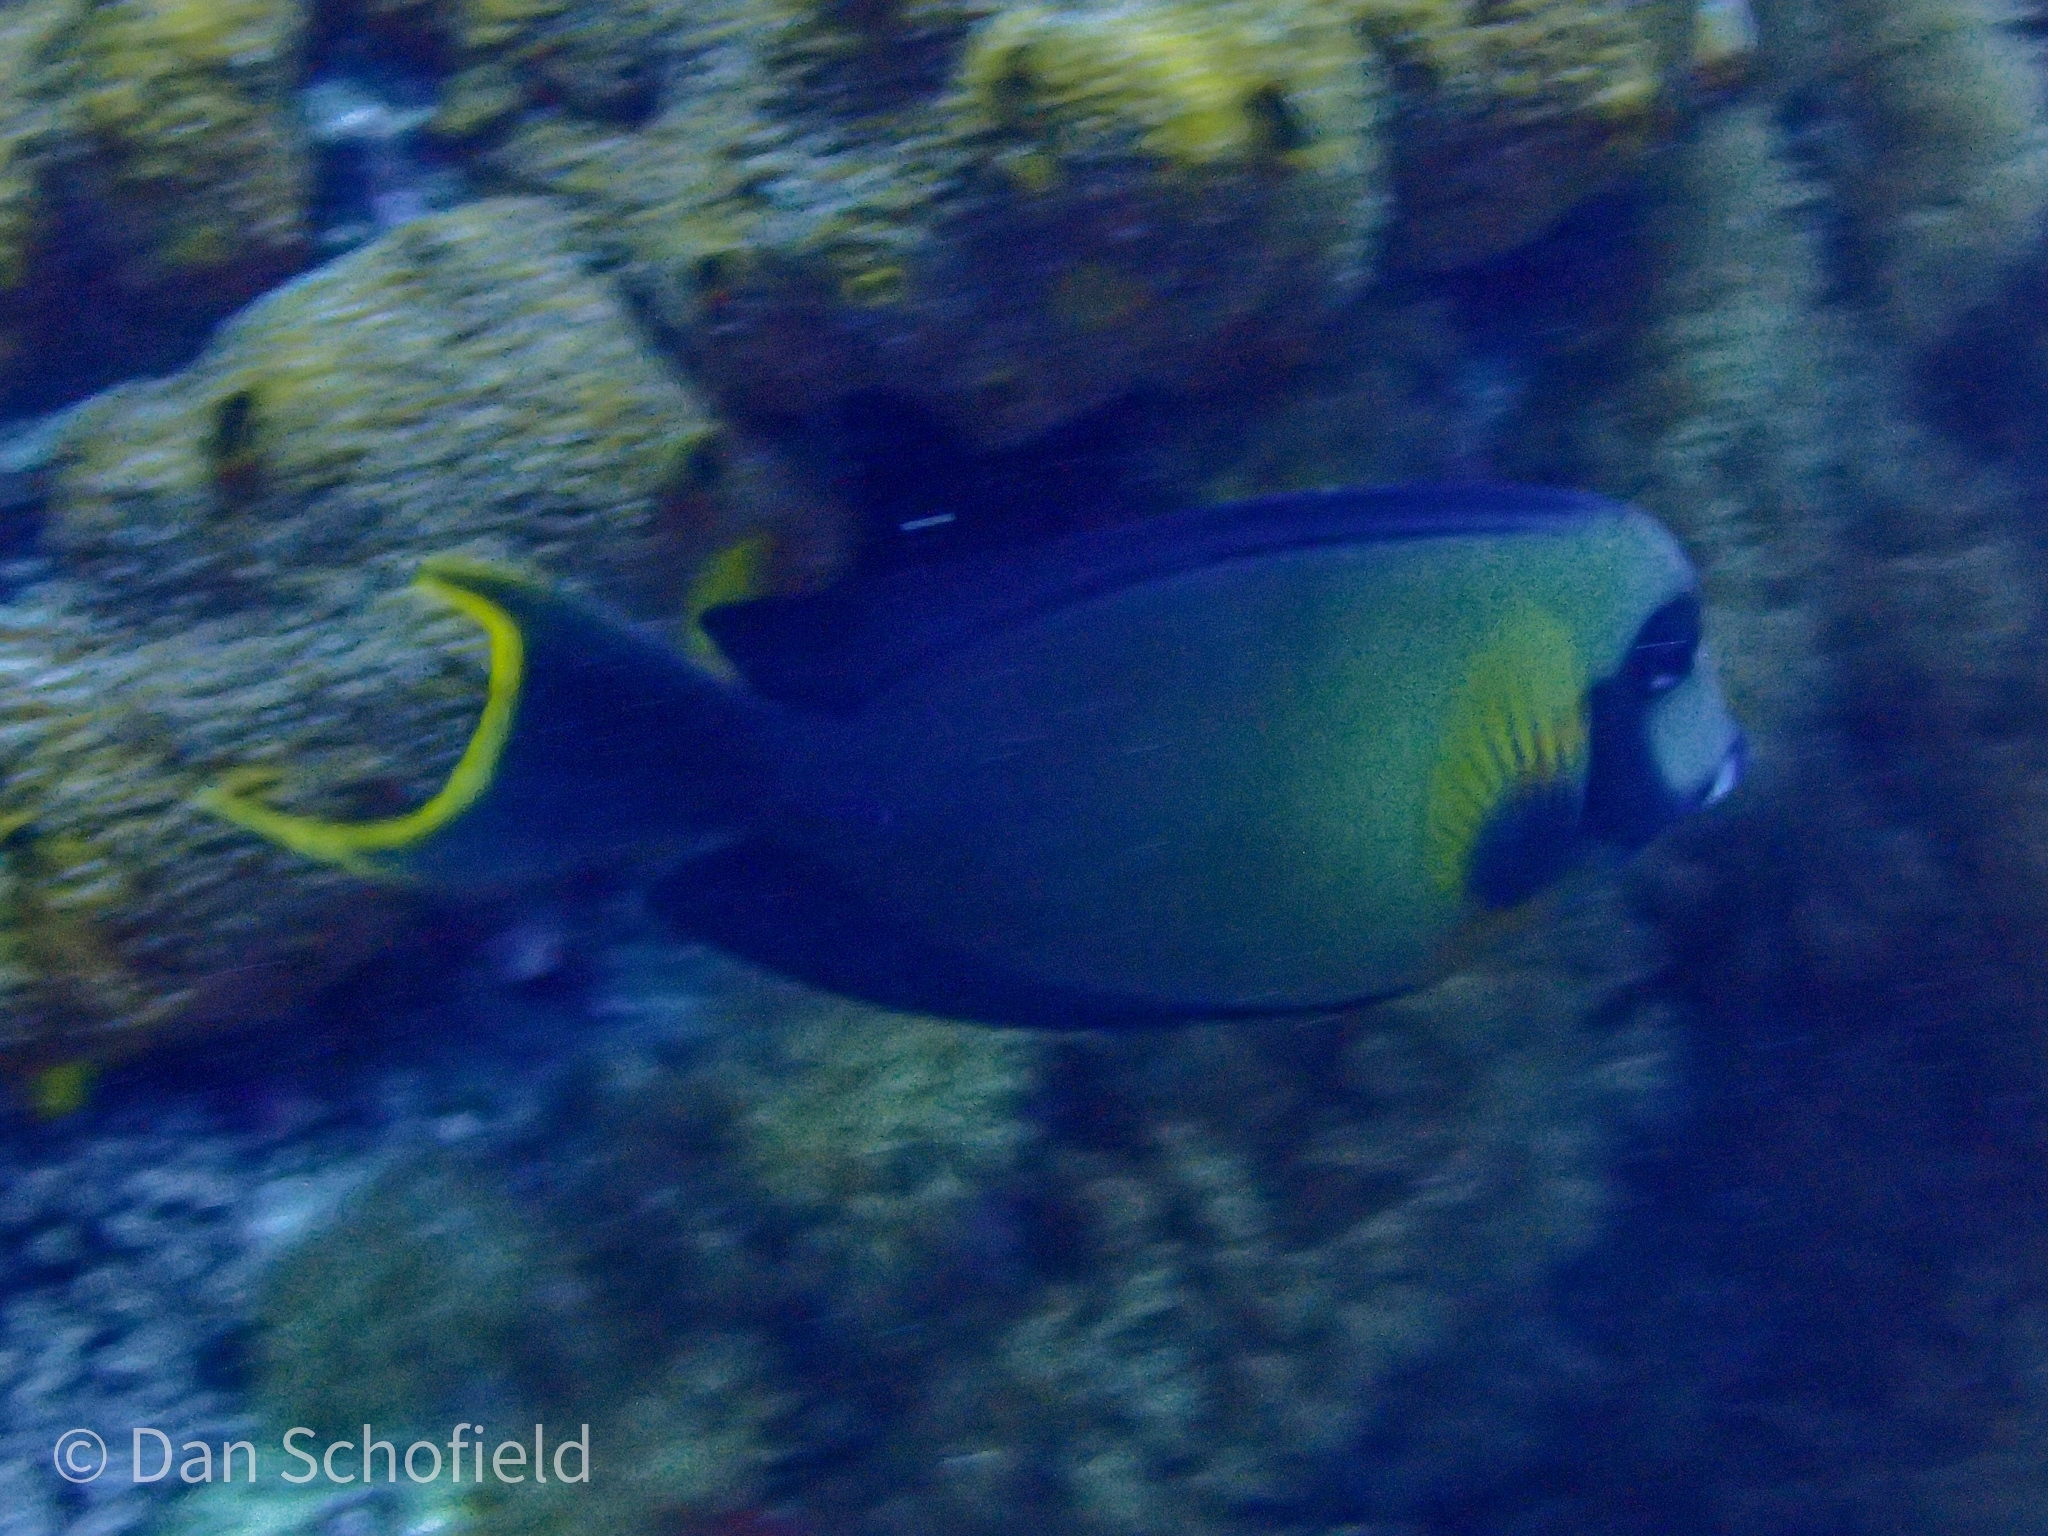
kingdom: Animalia
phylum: Chordata
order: Perciformes
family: Acanthuridae
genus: Acanthurus
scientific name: Acanthurus pyroferus
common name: Chocolate surgeonfish
